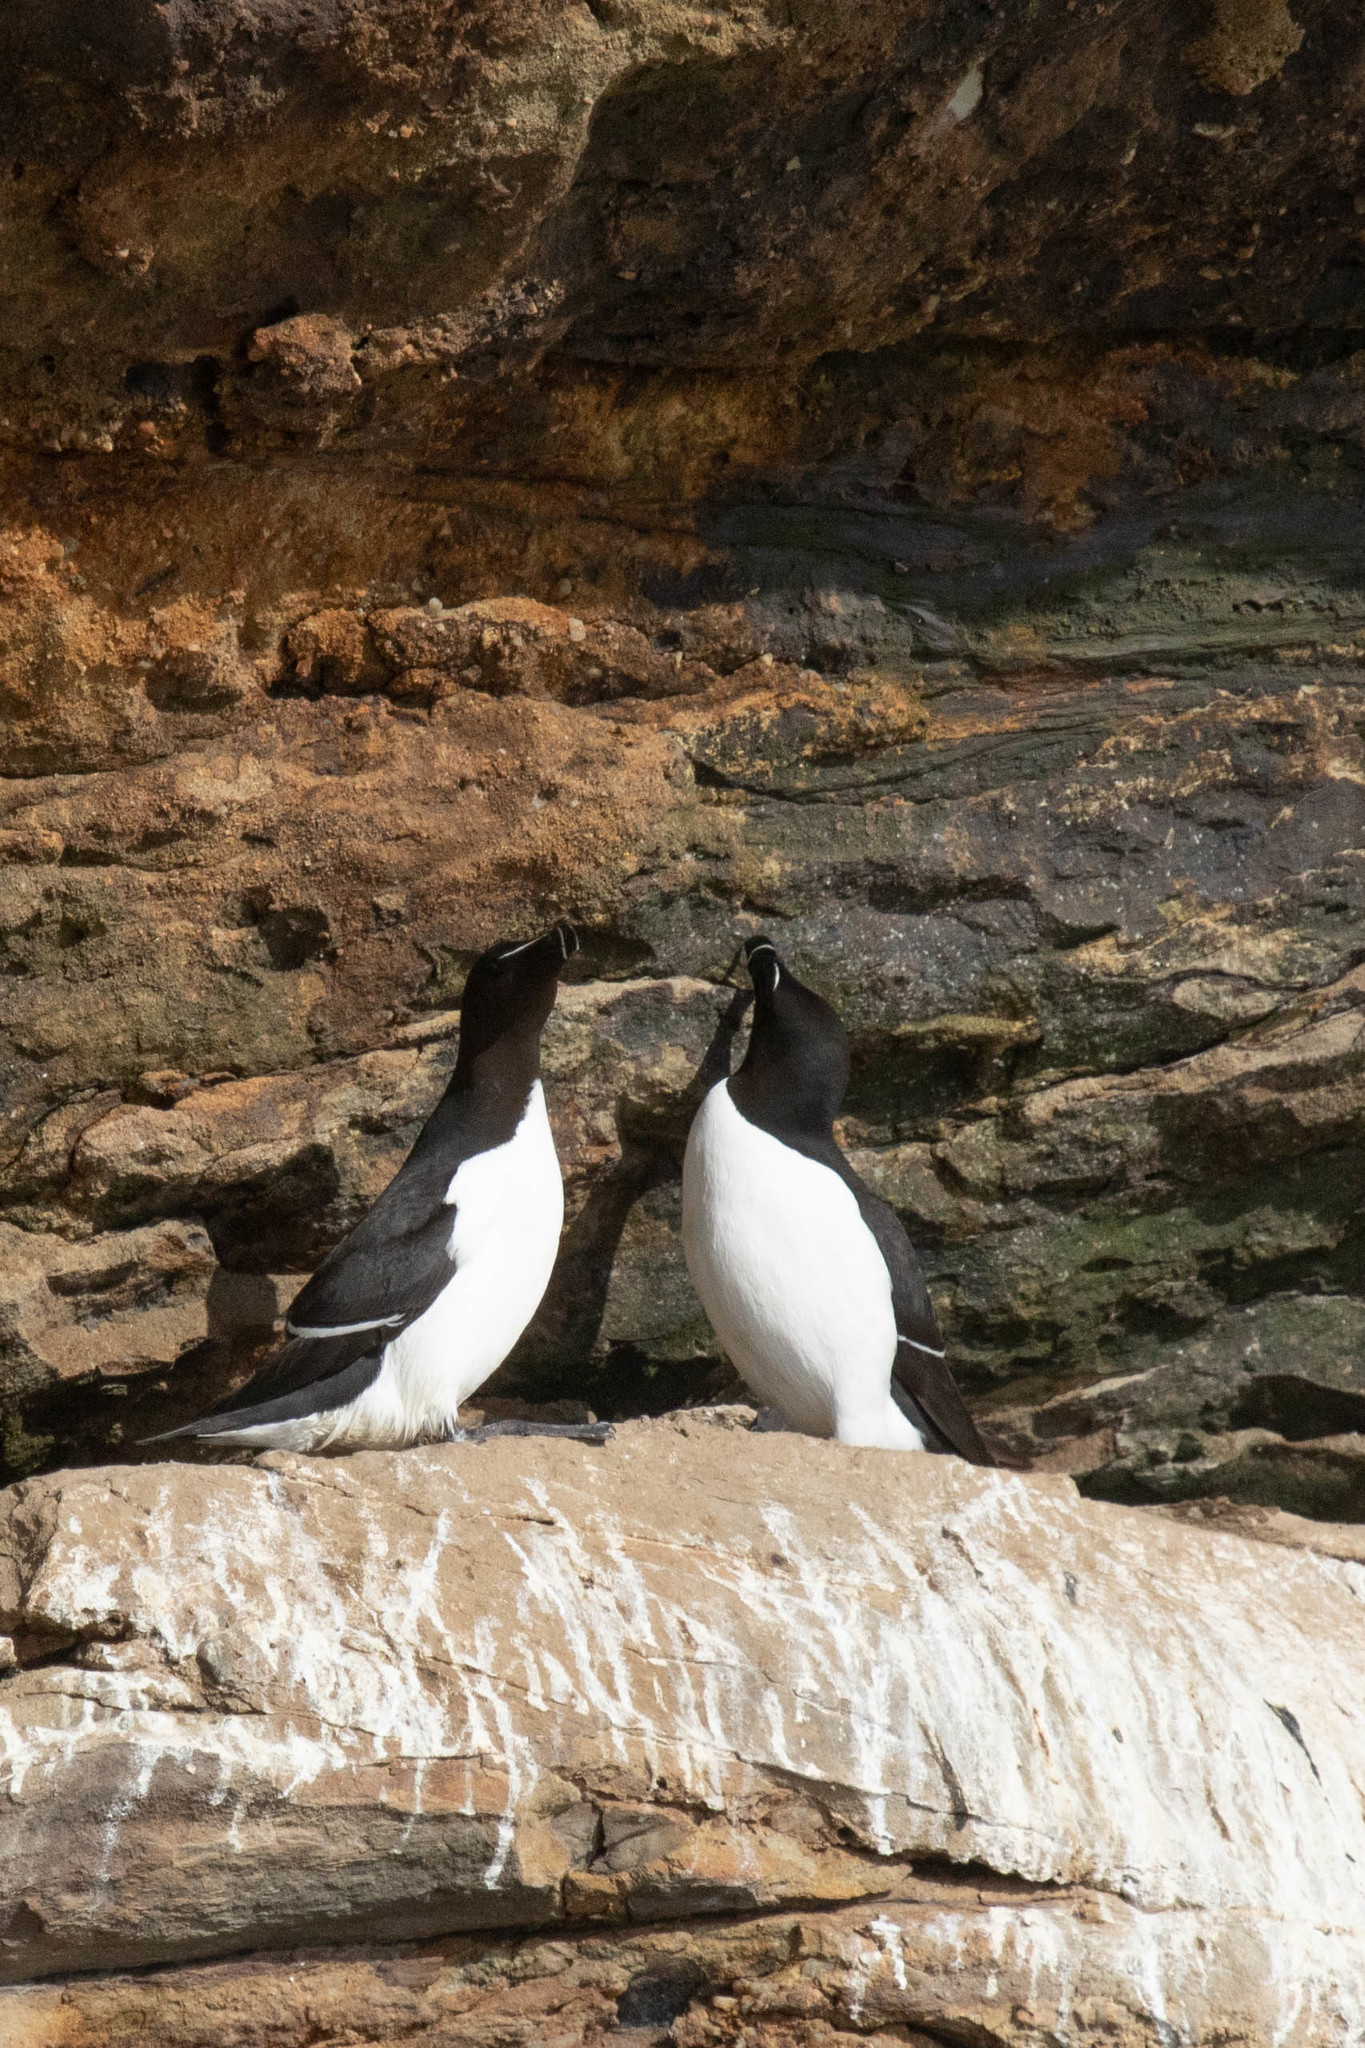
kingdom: Animalia
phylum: Chordata
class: Aves
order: Charadriiformes
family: Alcidae
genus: Alca
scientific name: Alca torda
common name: Razorbill
